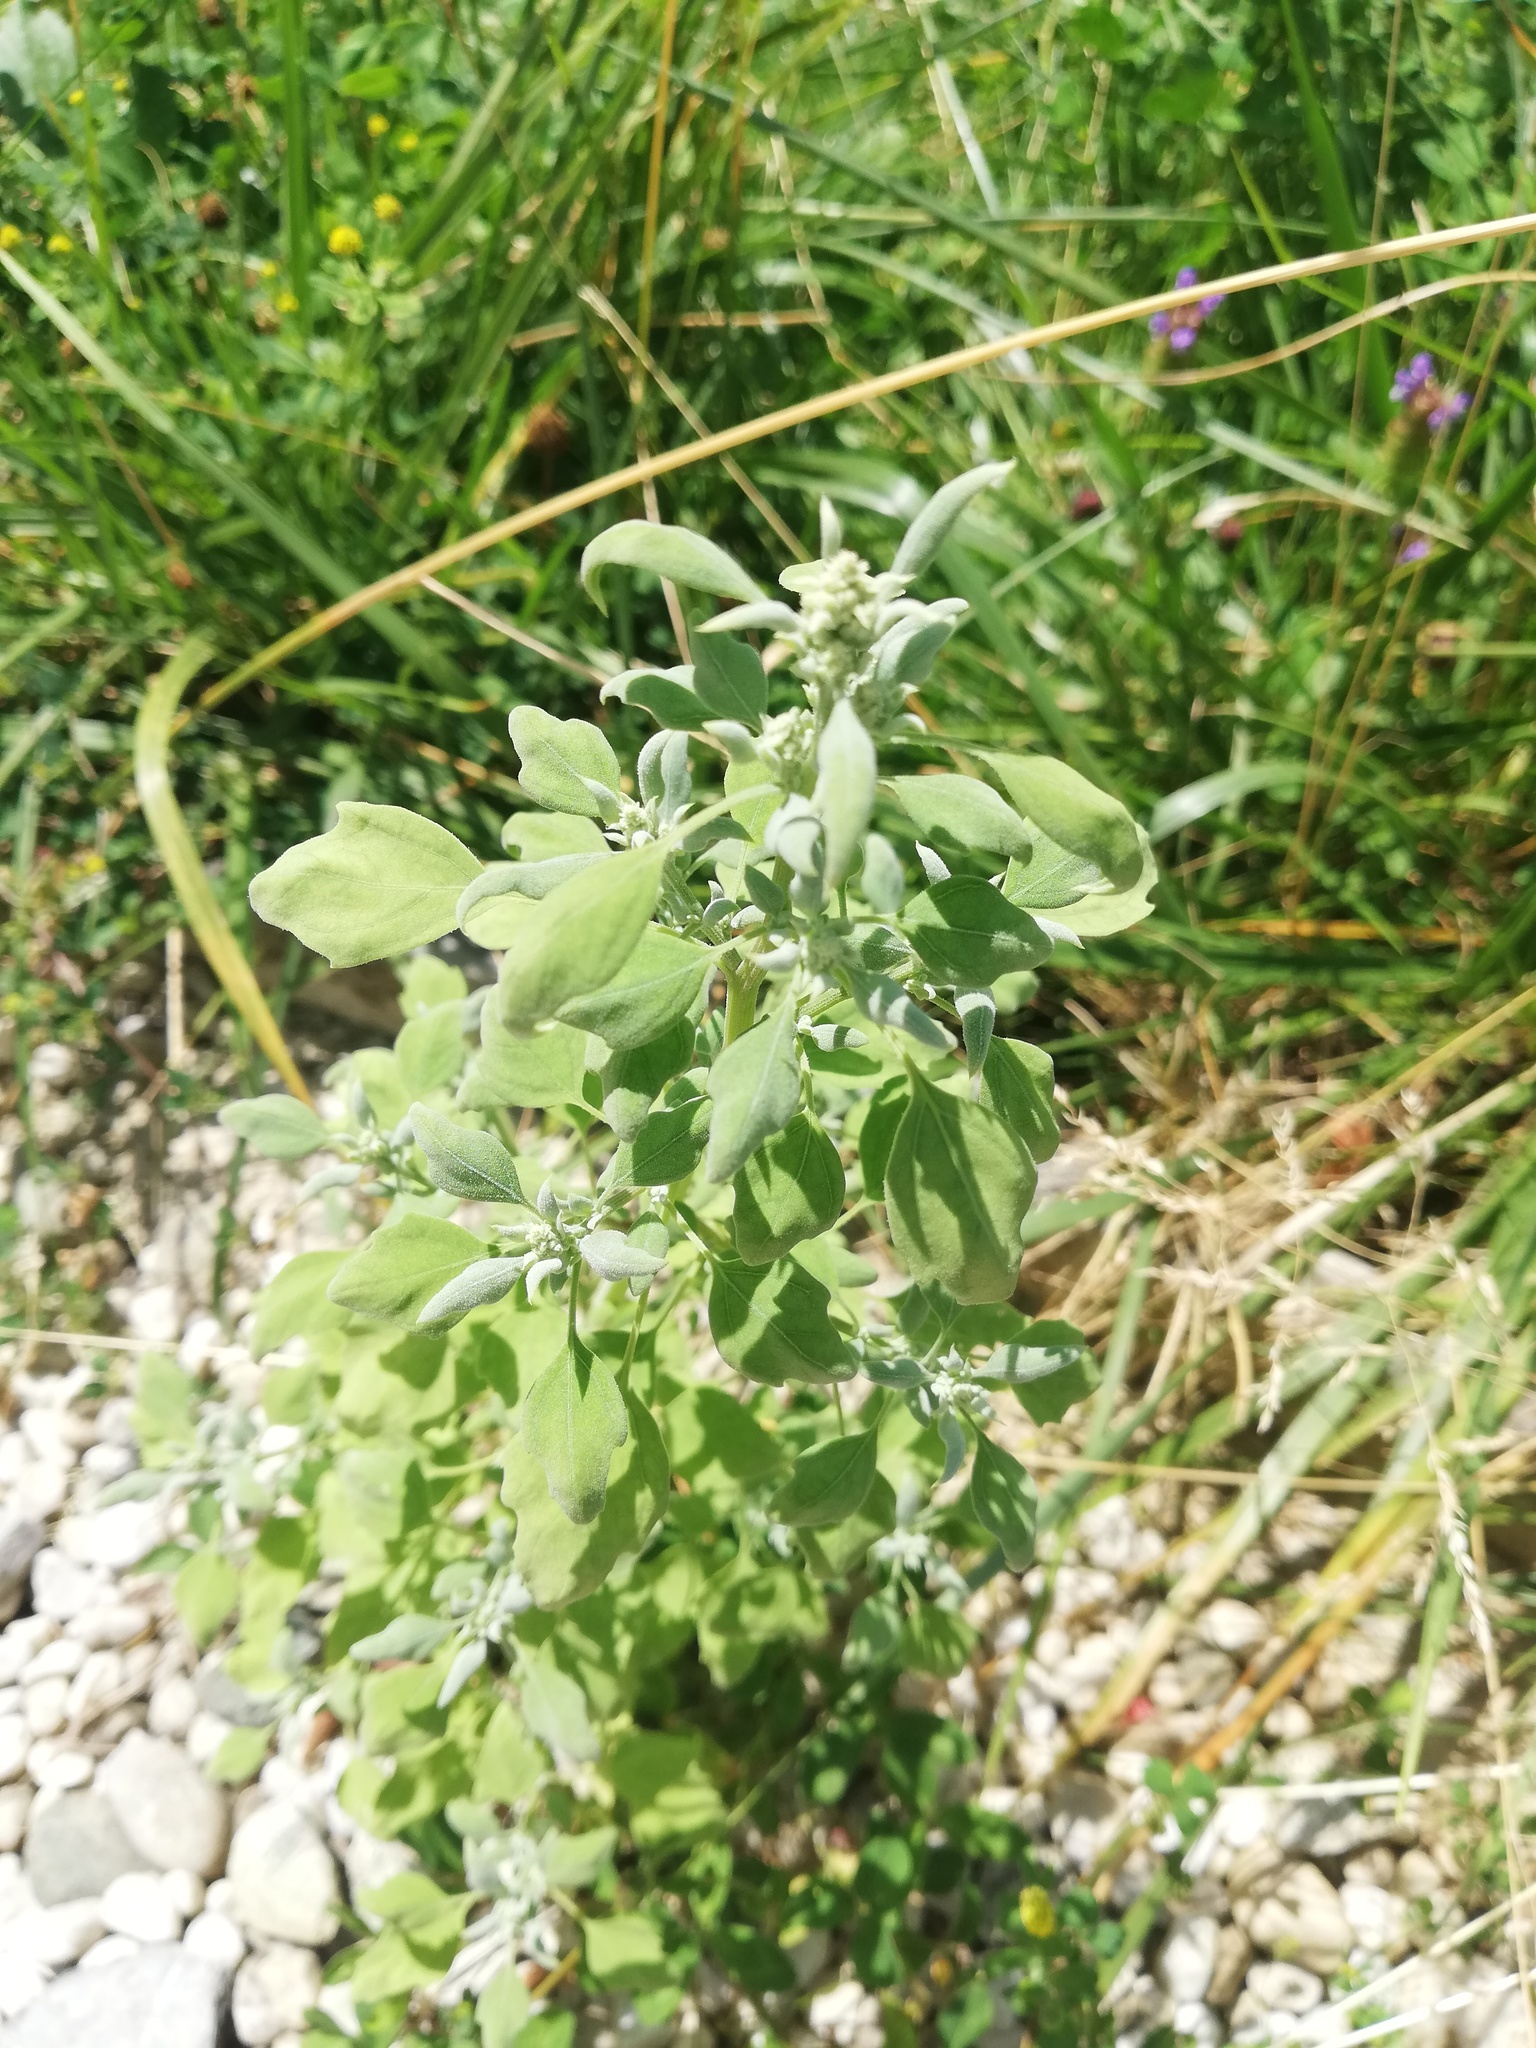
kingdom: Plantae
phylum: Tracheophyta
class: Magnoliopsida
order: Caryophyllales
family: Amaranthaceae
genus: Chenopodium
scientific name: Chenopodium album
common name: Fat-hen
